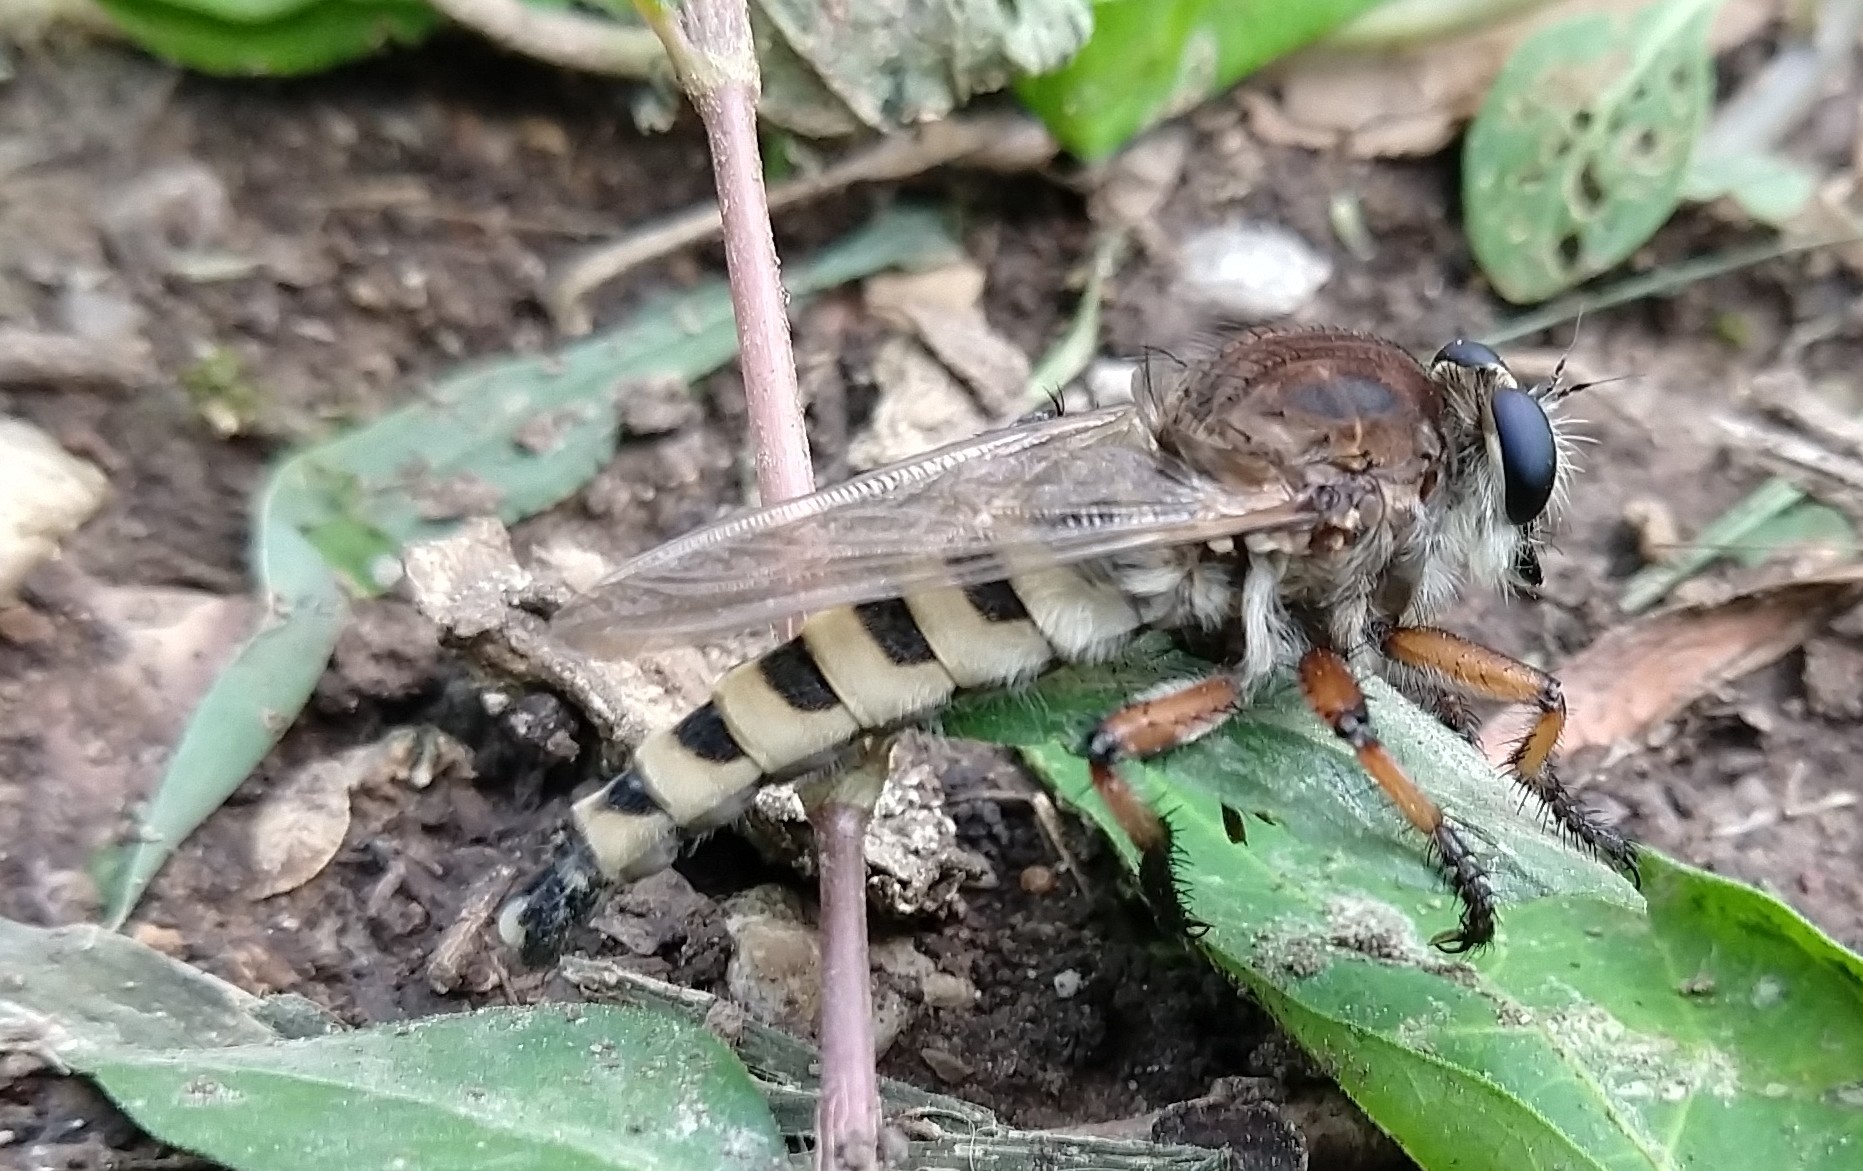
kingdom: Animalia
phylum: Arthropoda
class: Insecta
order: Diptera
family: Asilidae
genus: Promachus
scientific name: Promachus hinei
